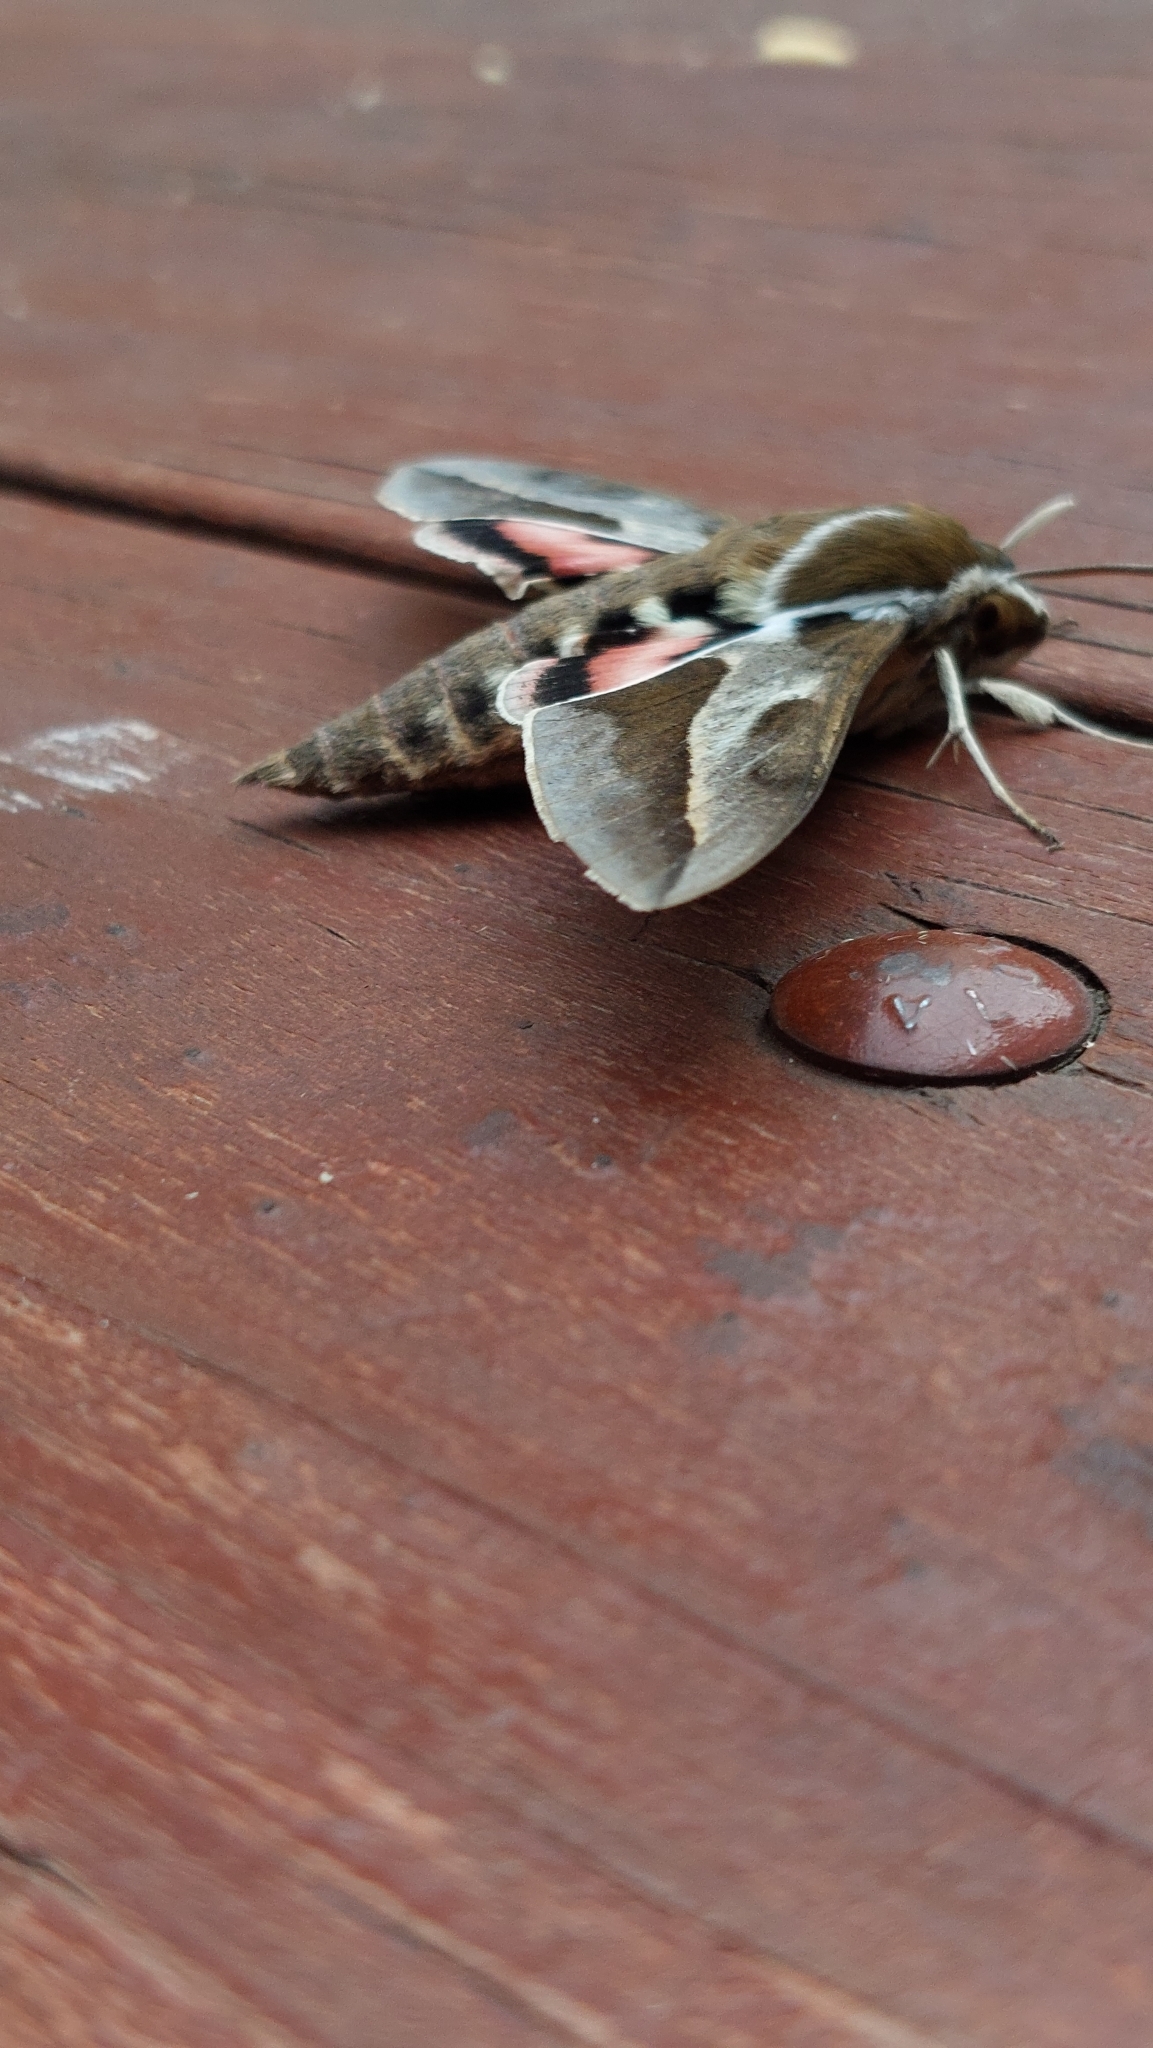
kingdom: Animalia
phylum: Arthropoda
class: Insecta
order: Lepidoptera
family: Sphingidae
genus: Hyles
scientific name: Hyles annei
